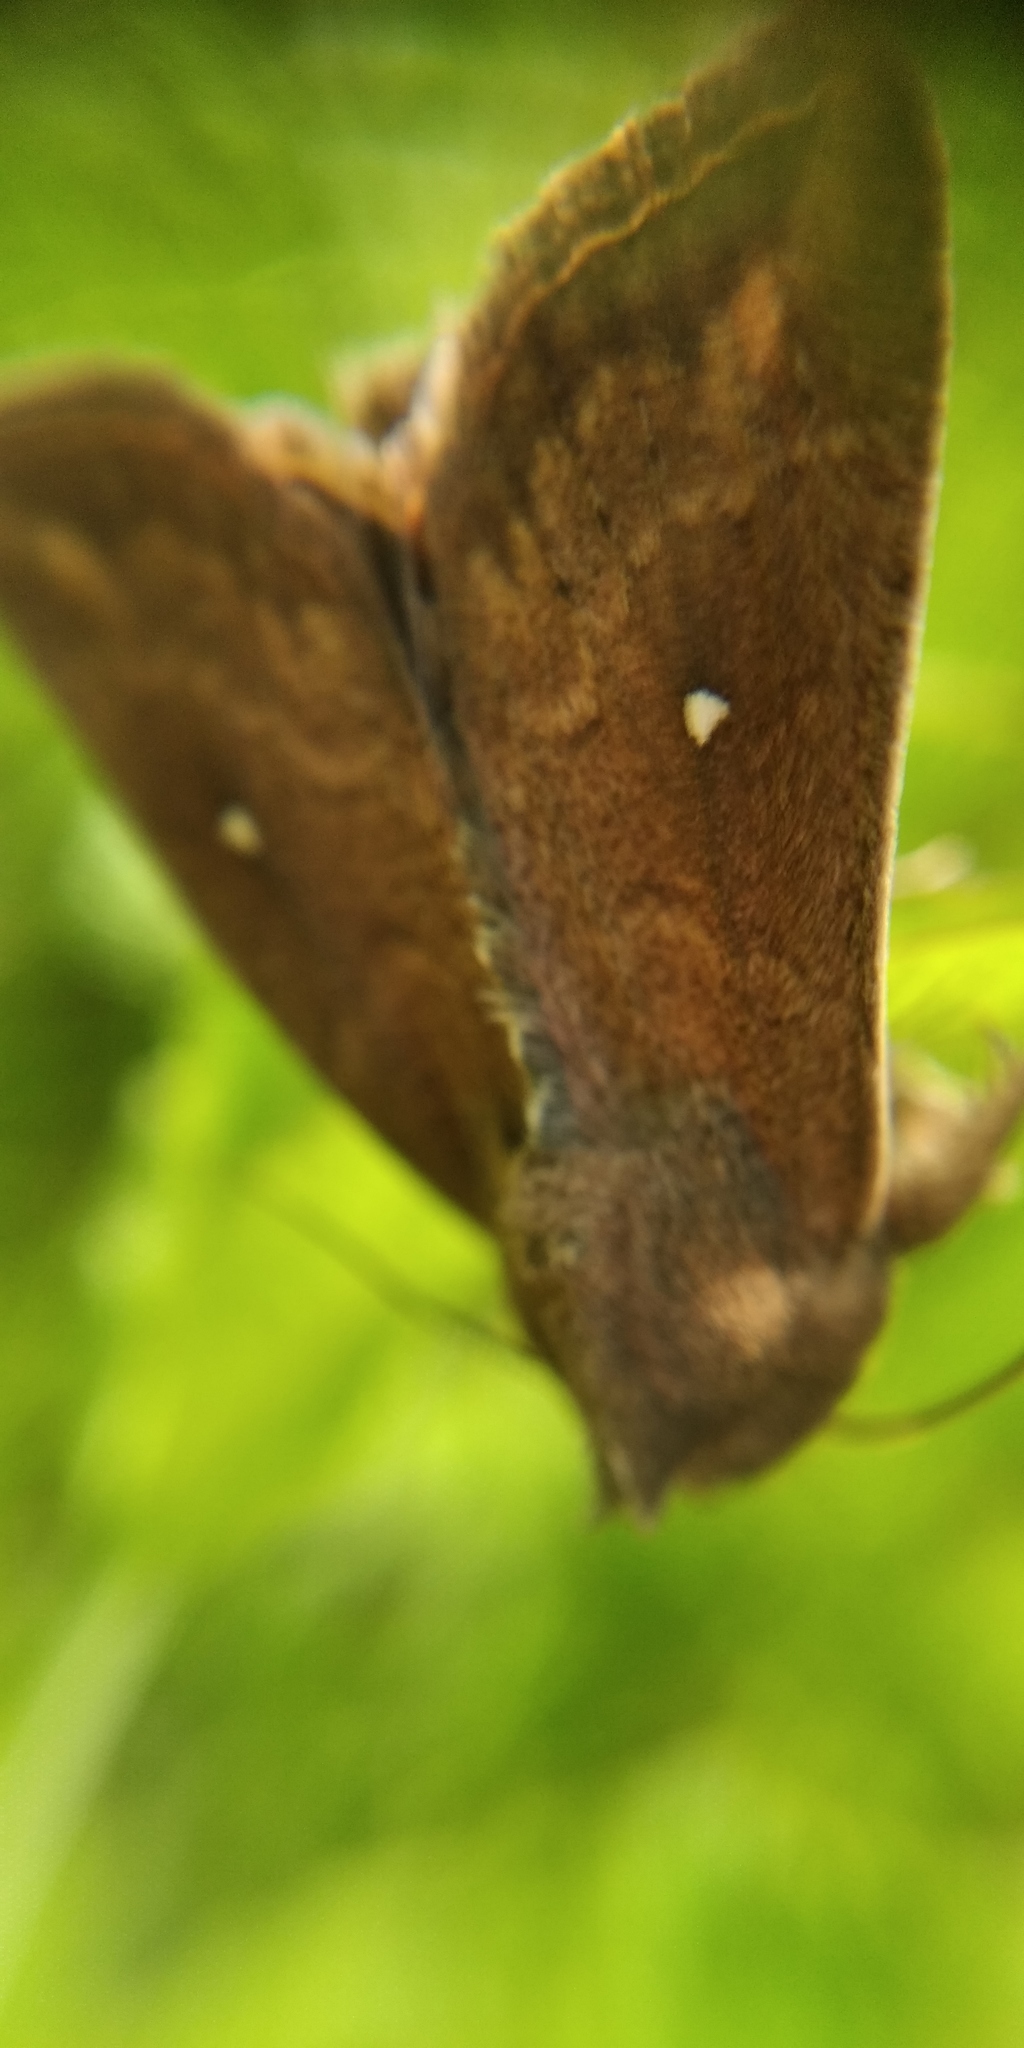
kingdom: Animalia
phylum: Arthropoda
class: Insecta
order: Lepidoptera
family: Noctuidae
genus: Mythimna
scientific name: Mythimna albipuncta
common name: White-point
